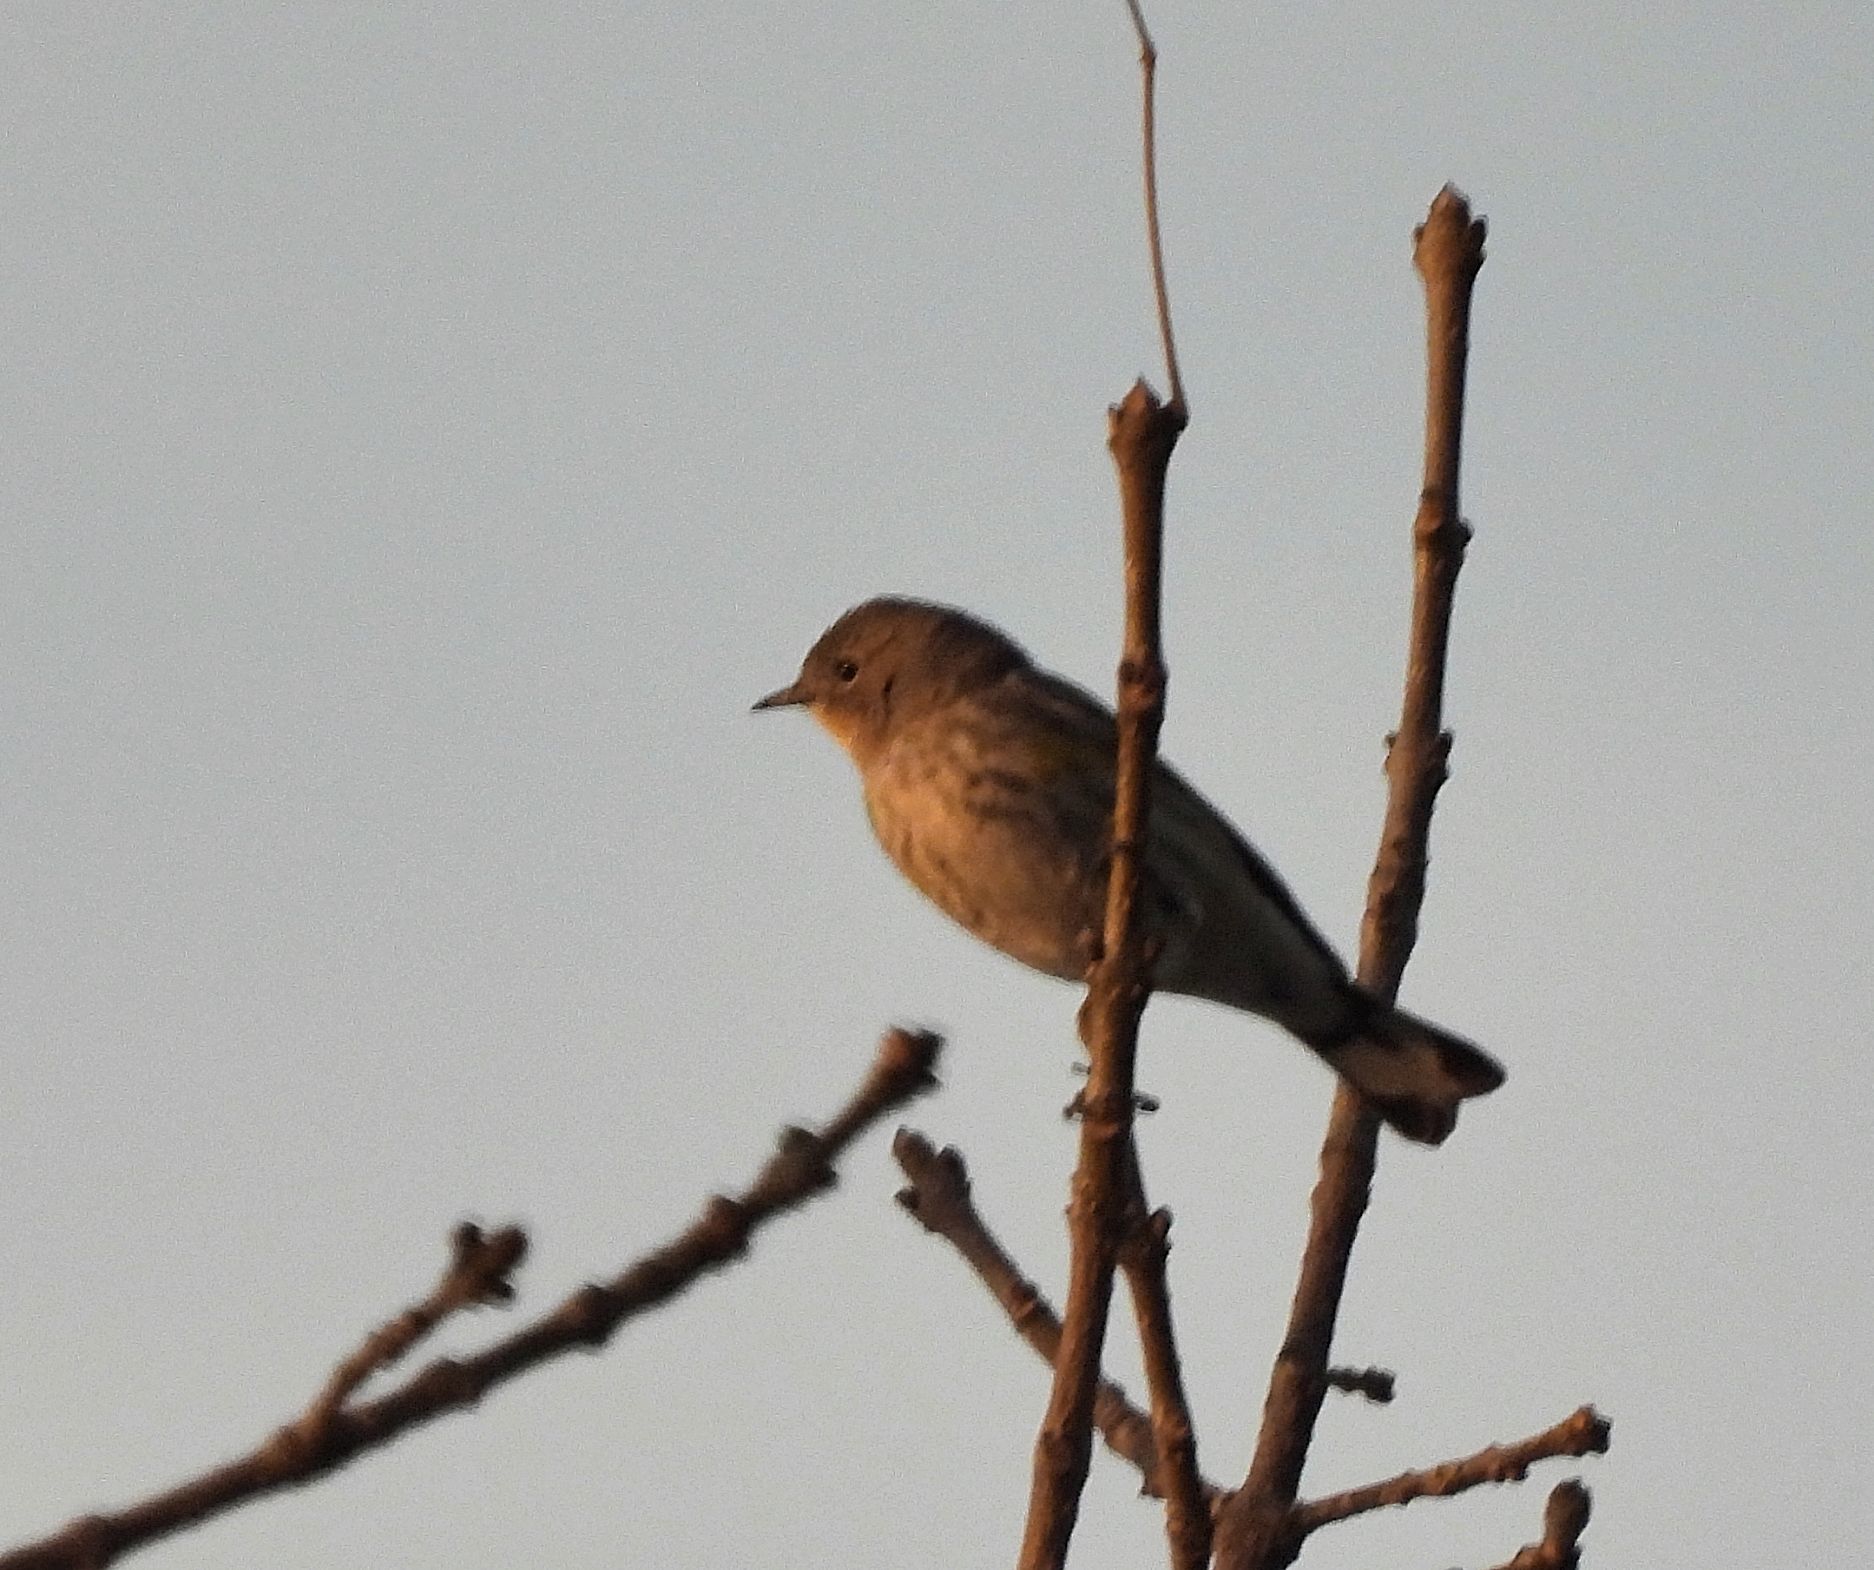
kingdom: Animalia
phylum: Chordata
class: Aves
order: Passeriformes
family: Parulidae
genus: Setophaga
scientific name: Setophaga coronata
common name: Myrtle warbler
